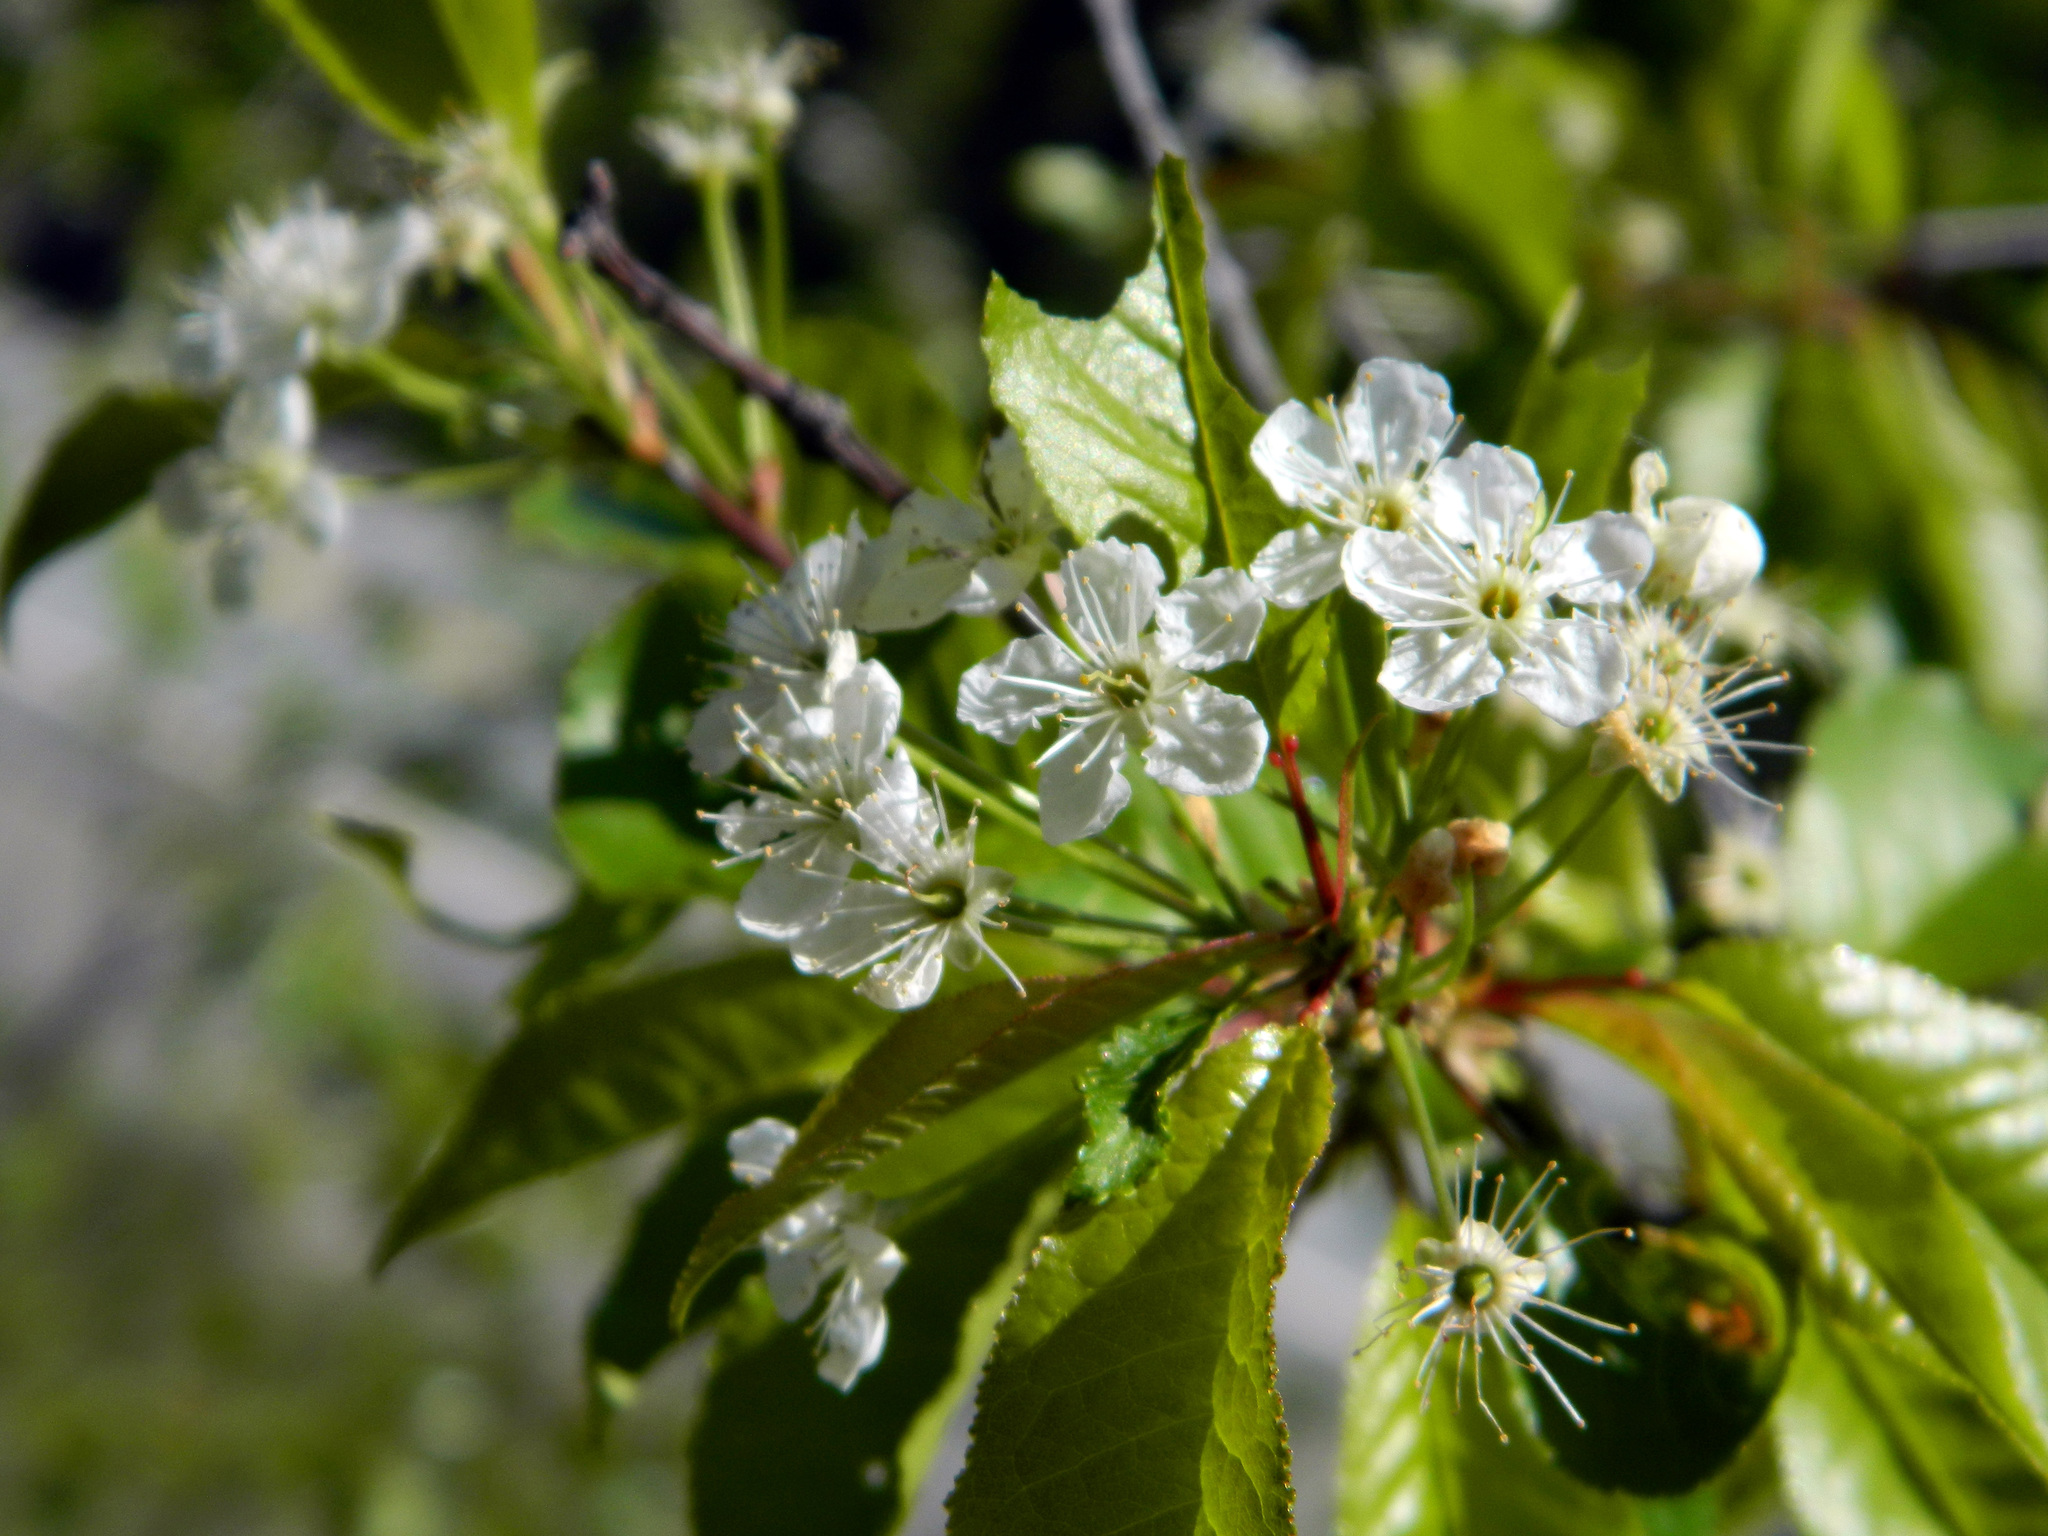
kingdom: Plantae
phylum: Tracheophyta
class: Magnoliopsida
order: Rosales
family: Rosaceae
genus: Prunus
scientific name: Prunus pensylvanica
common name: Pin cherry
